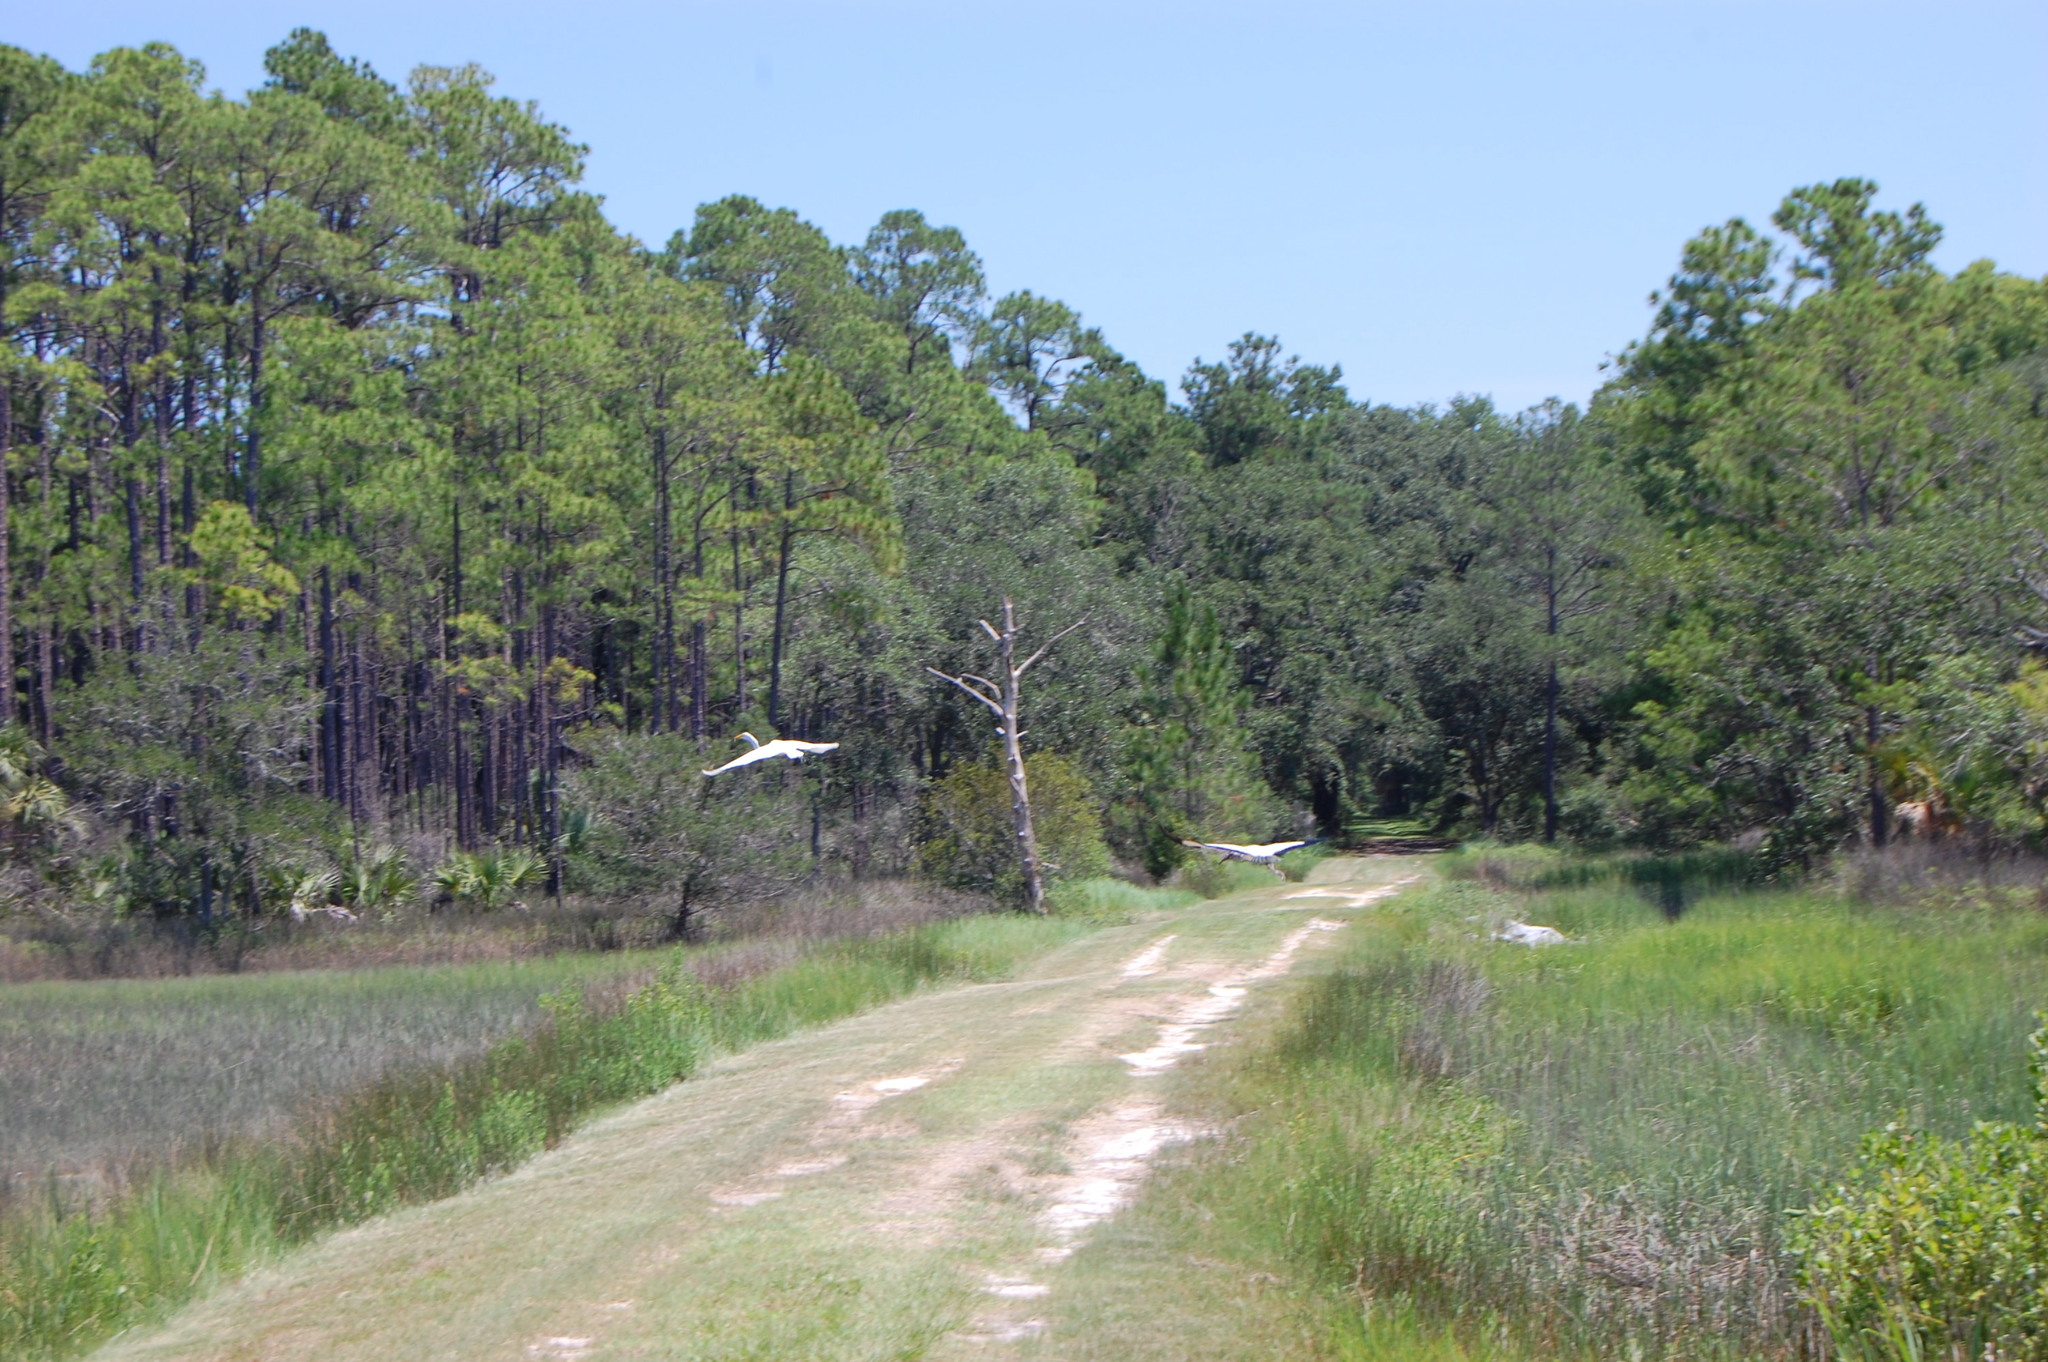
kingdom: Animalia
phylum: Chordata
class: Aves
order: Pelecaniformes
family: Ardeidae
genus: Ardea
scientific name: Ardea alba
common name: Great egret
